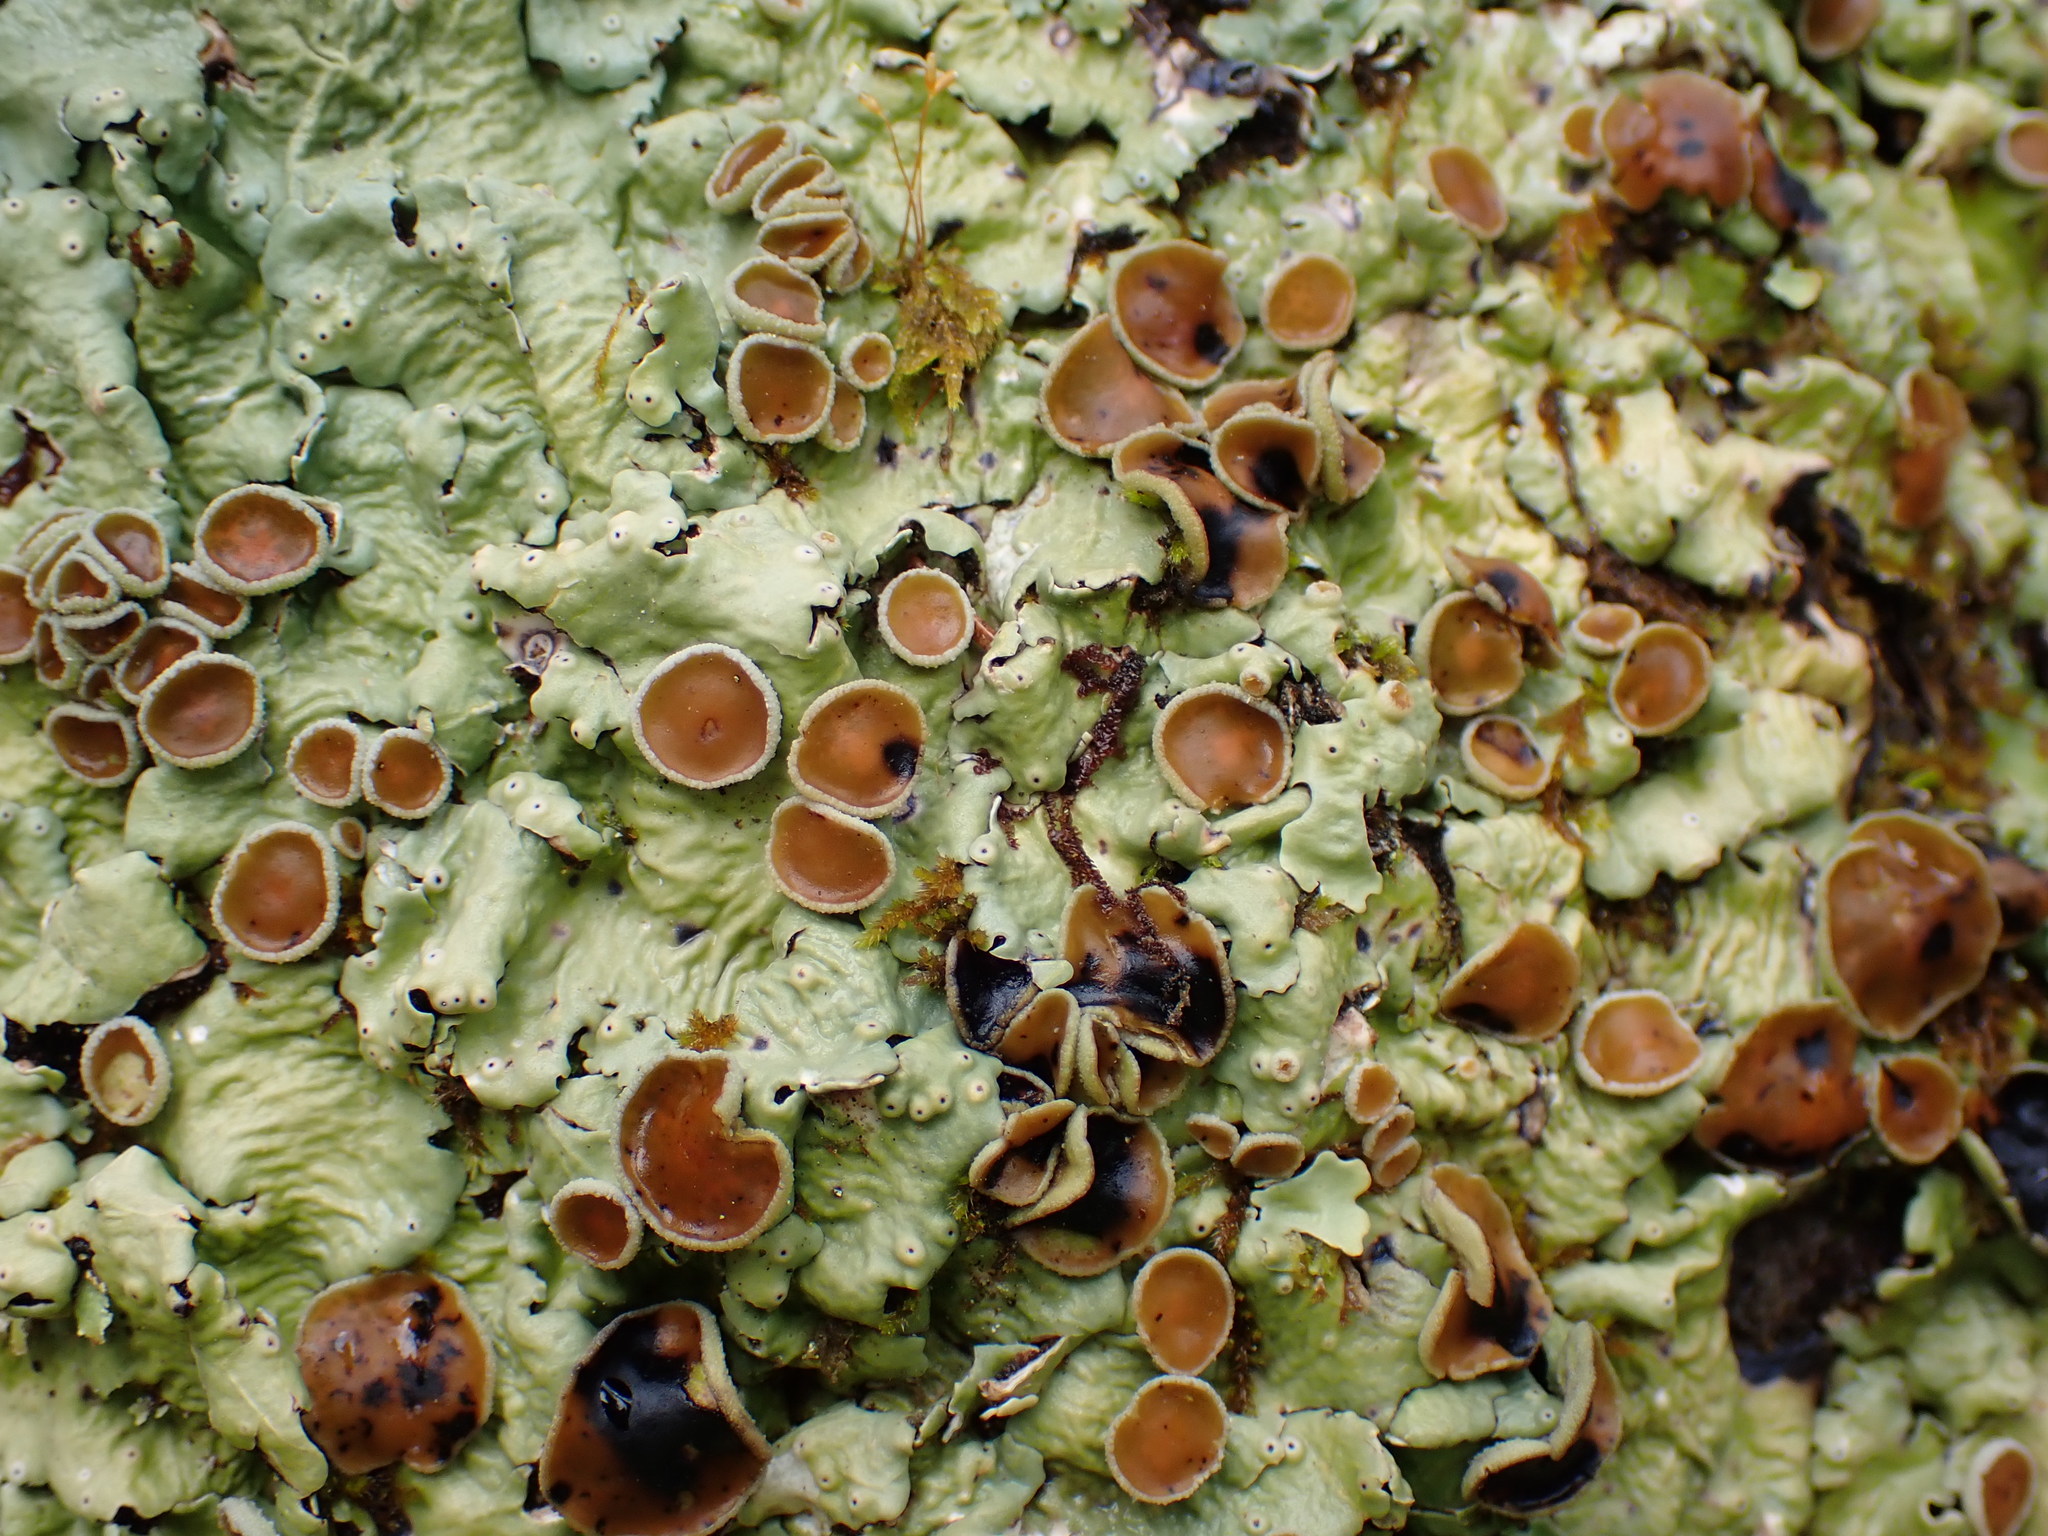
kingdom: Fungi
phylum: Ascomycota
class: Lecanoromycetes
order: Peltigerales
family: Lobariaceae
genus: Ricasolia
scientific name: Ricasolia quercizans
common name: Smooth lungwort
